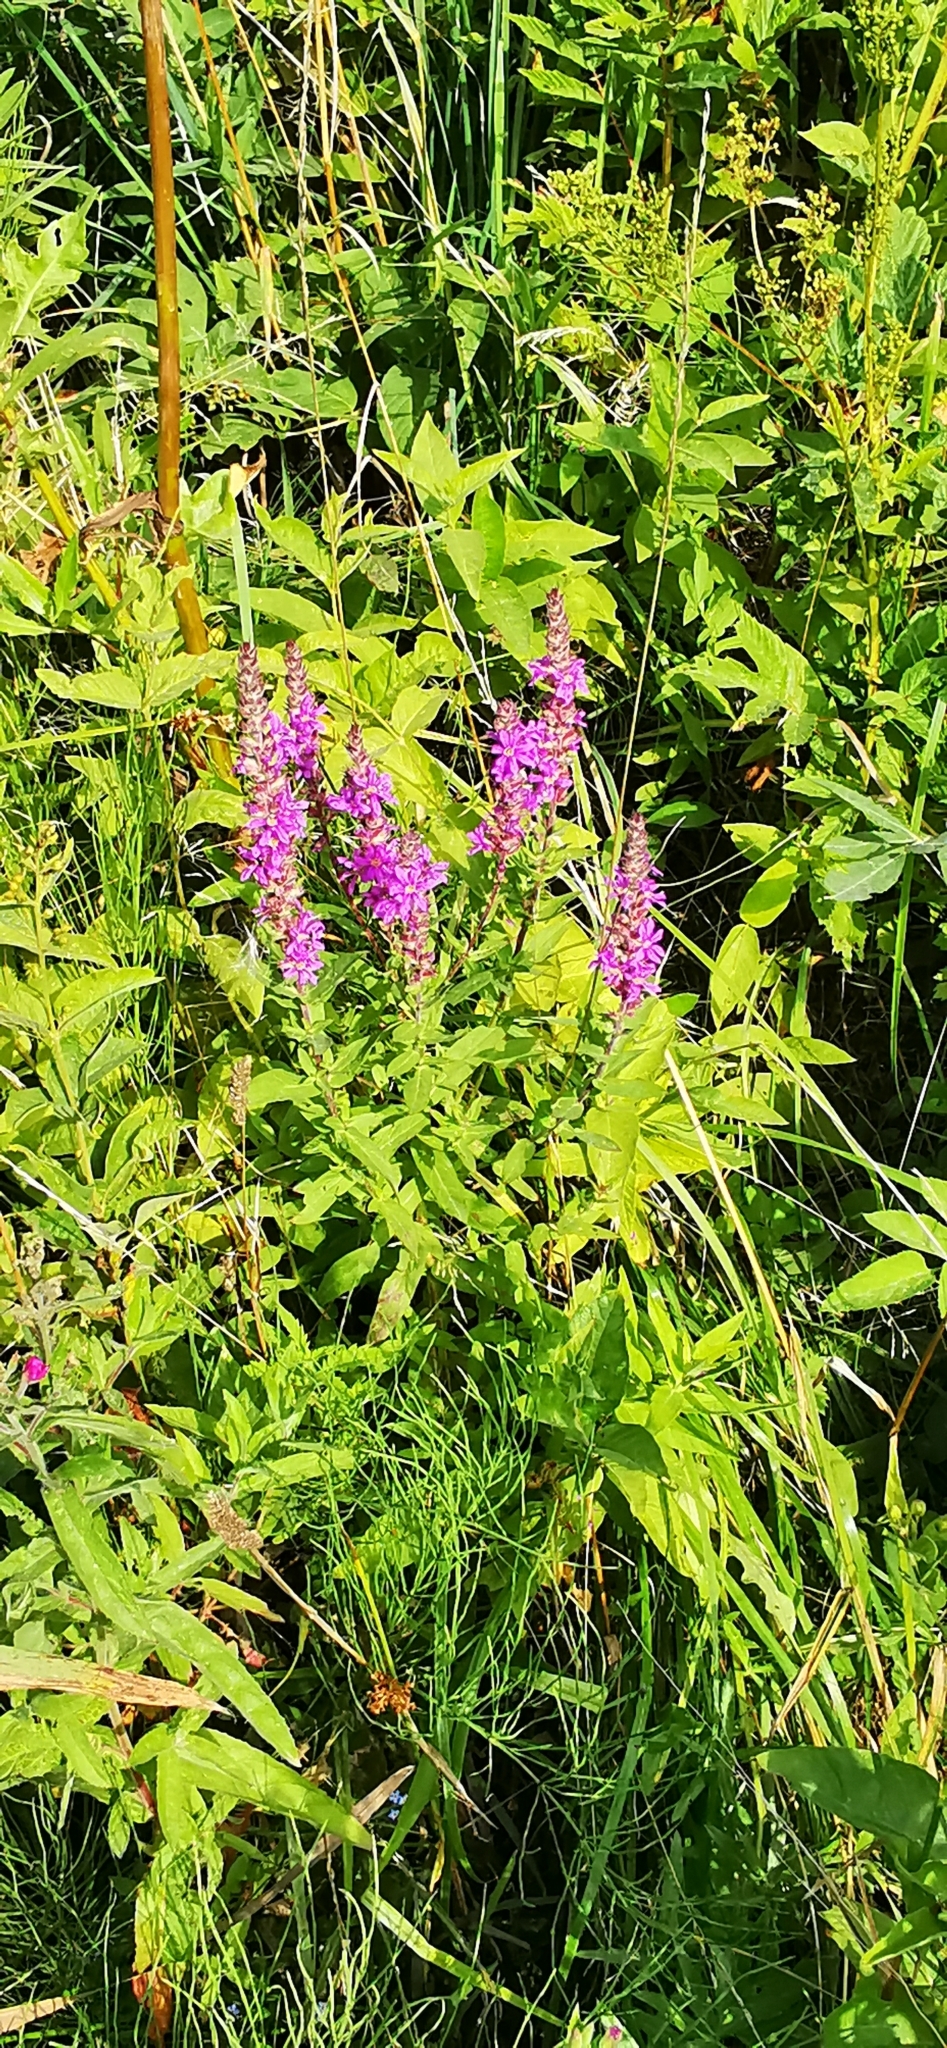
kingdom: Plantae
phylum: Tracheophyta
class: Magnoliopsida
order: Myrtales
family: Lythraceae
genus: Lythrum
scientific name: Lythrum salicaria
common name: Purple loosestrife
